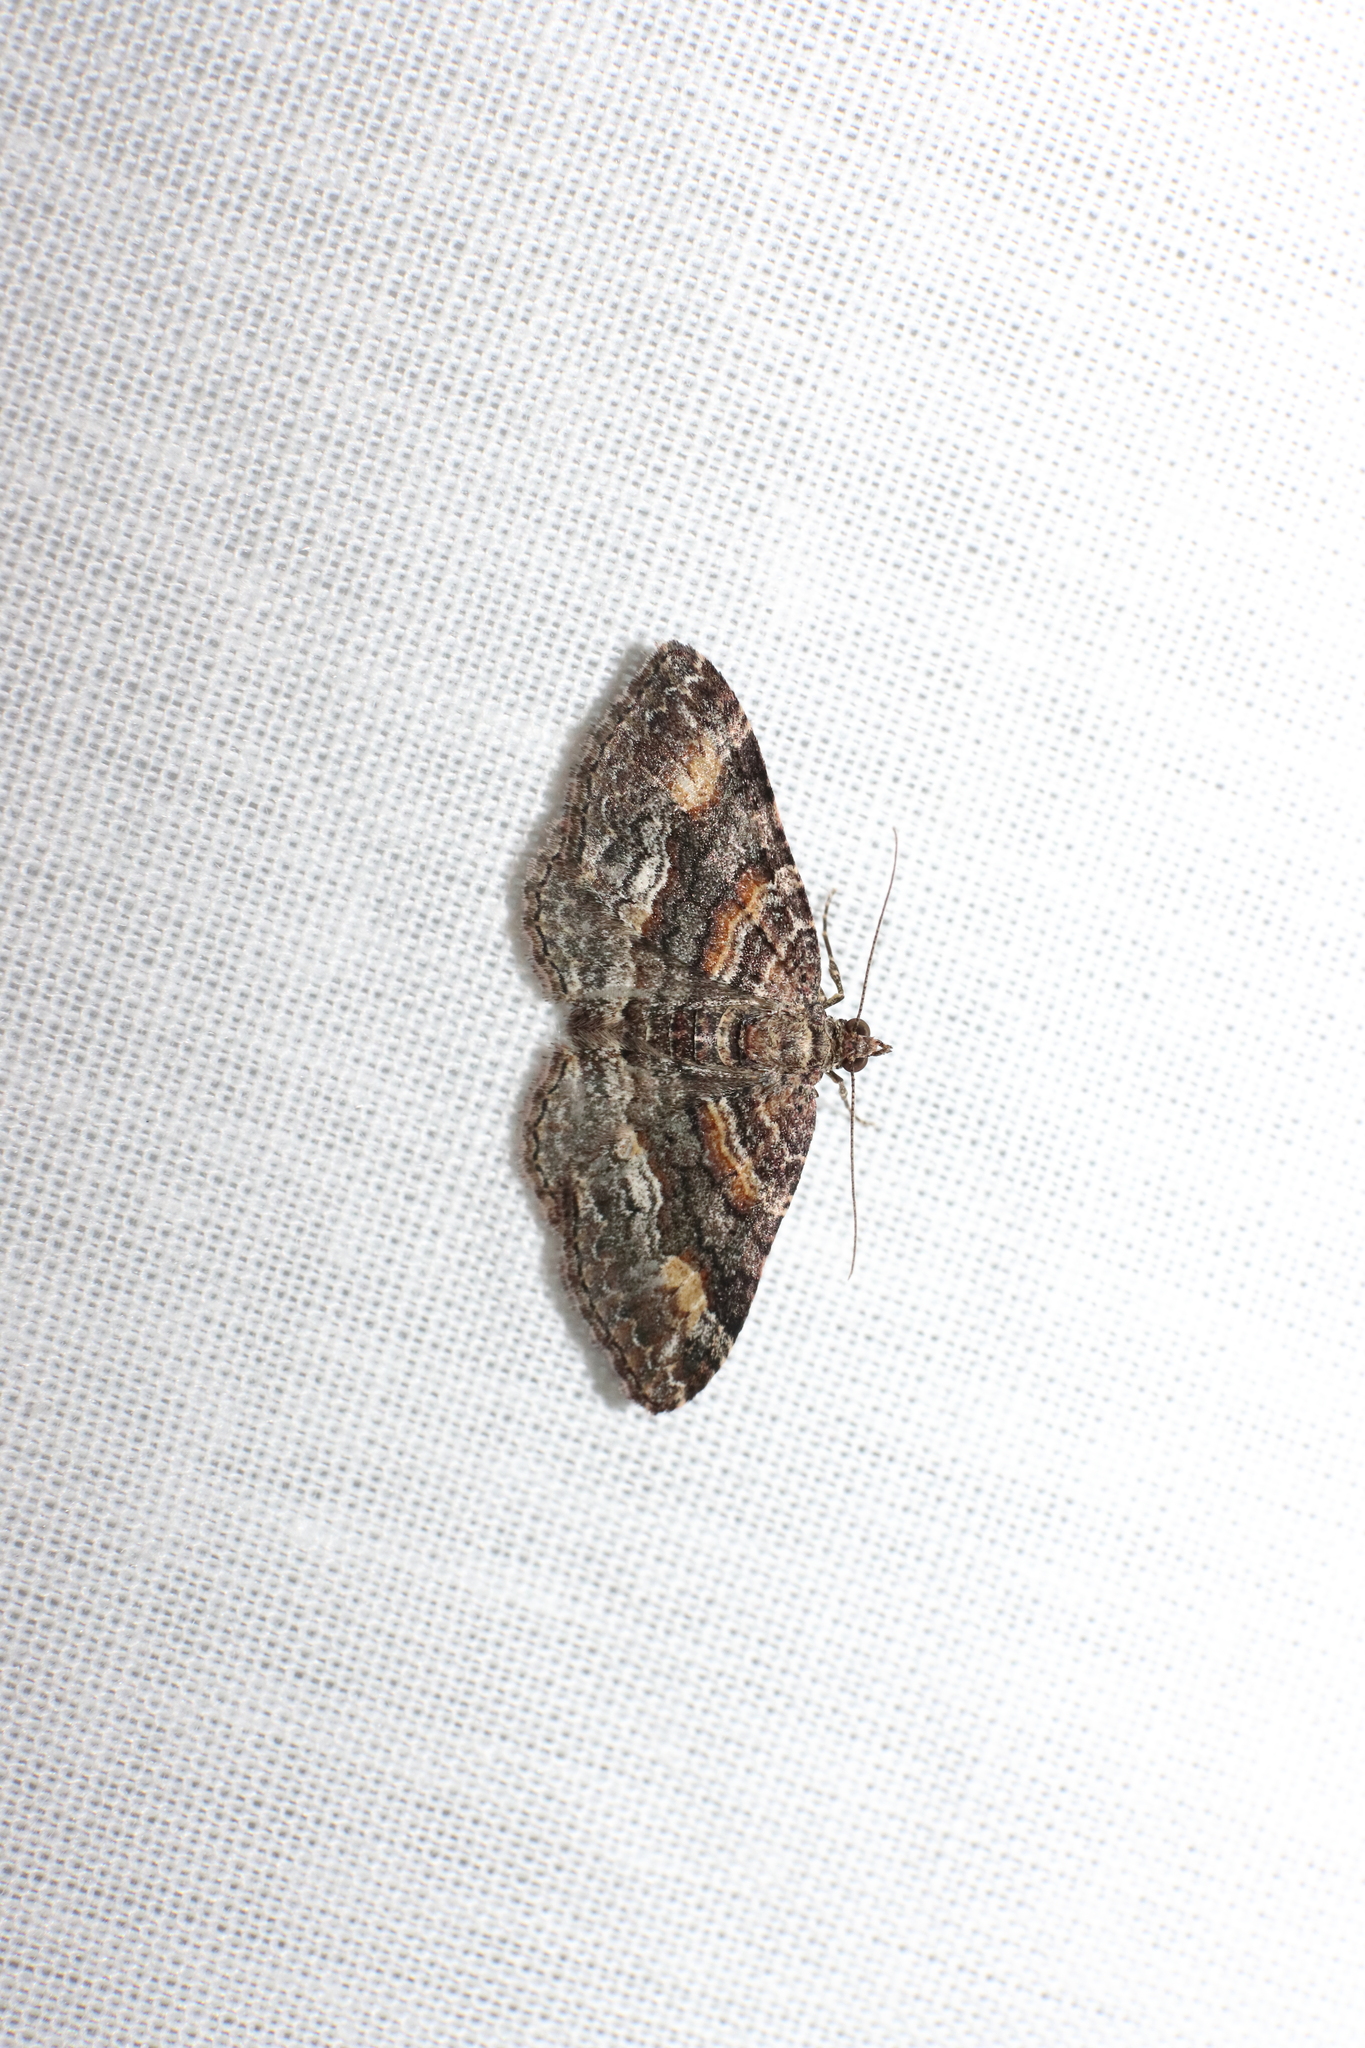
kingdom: Animalia
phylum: Arthropoda
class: Insecta
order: Lepidoptera
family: Geometridae
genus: Epyaxa
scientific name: Epyaxa lucidata
